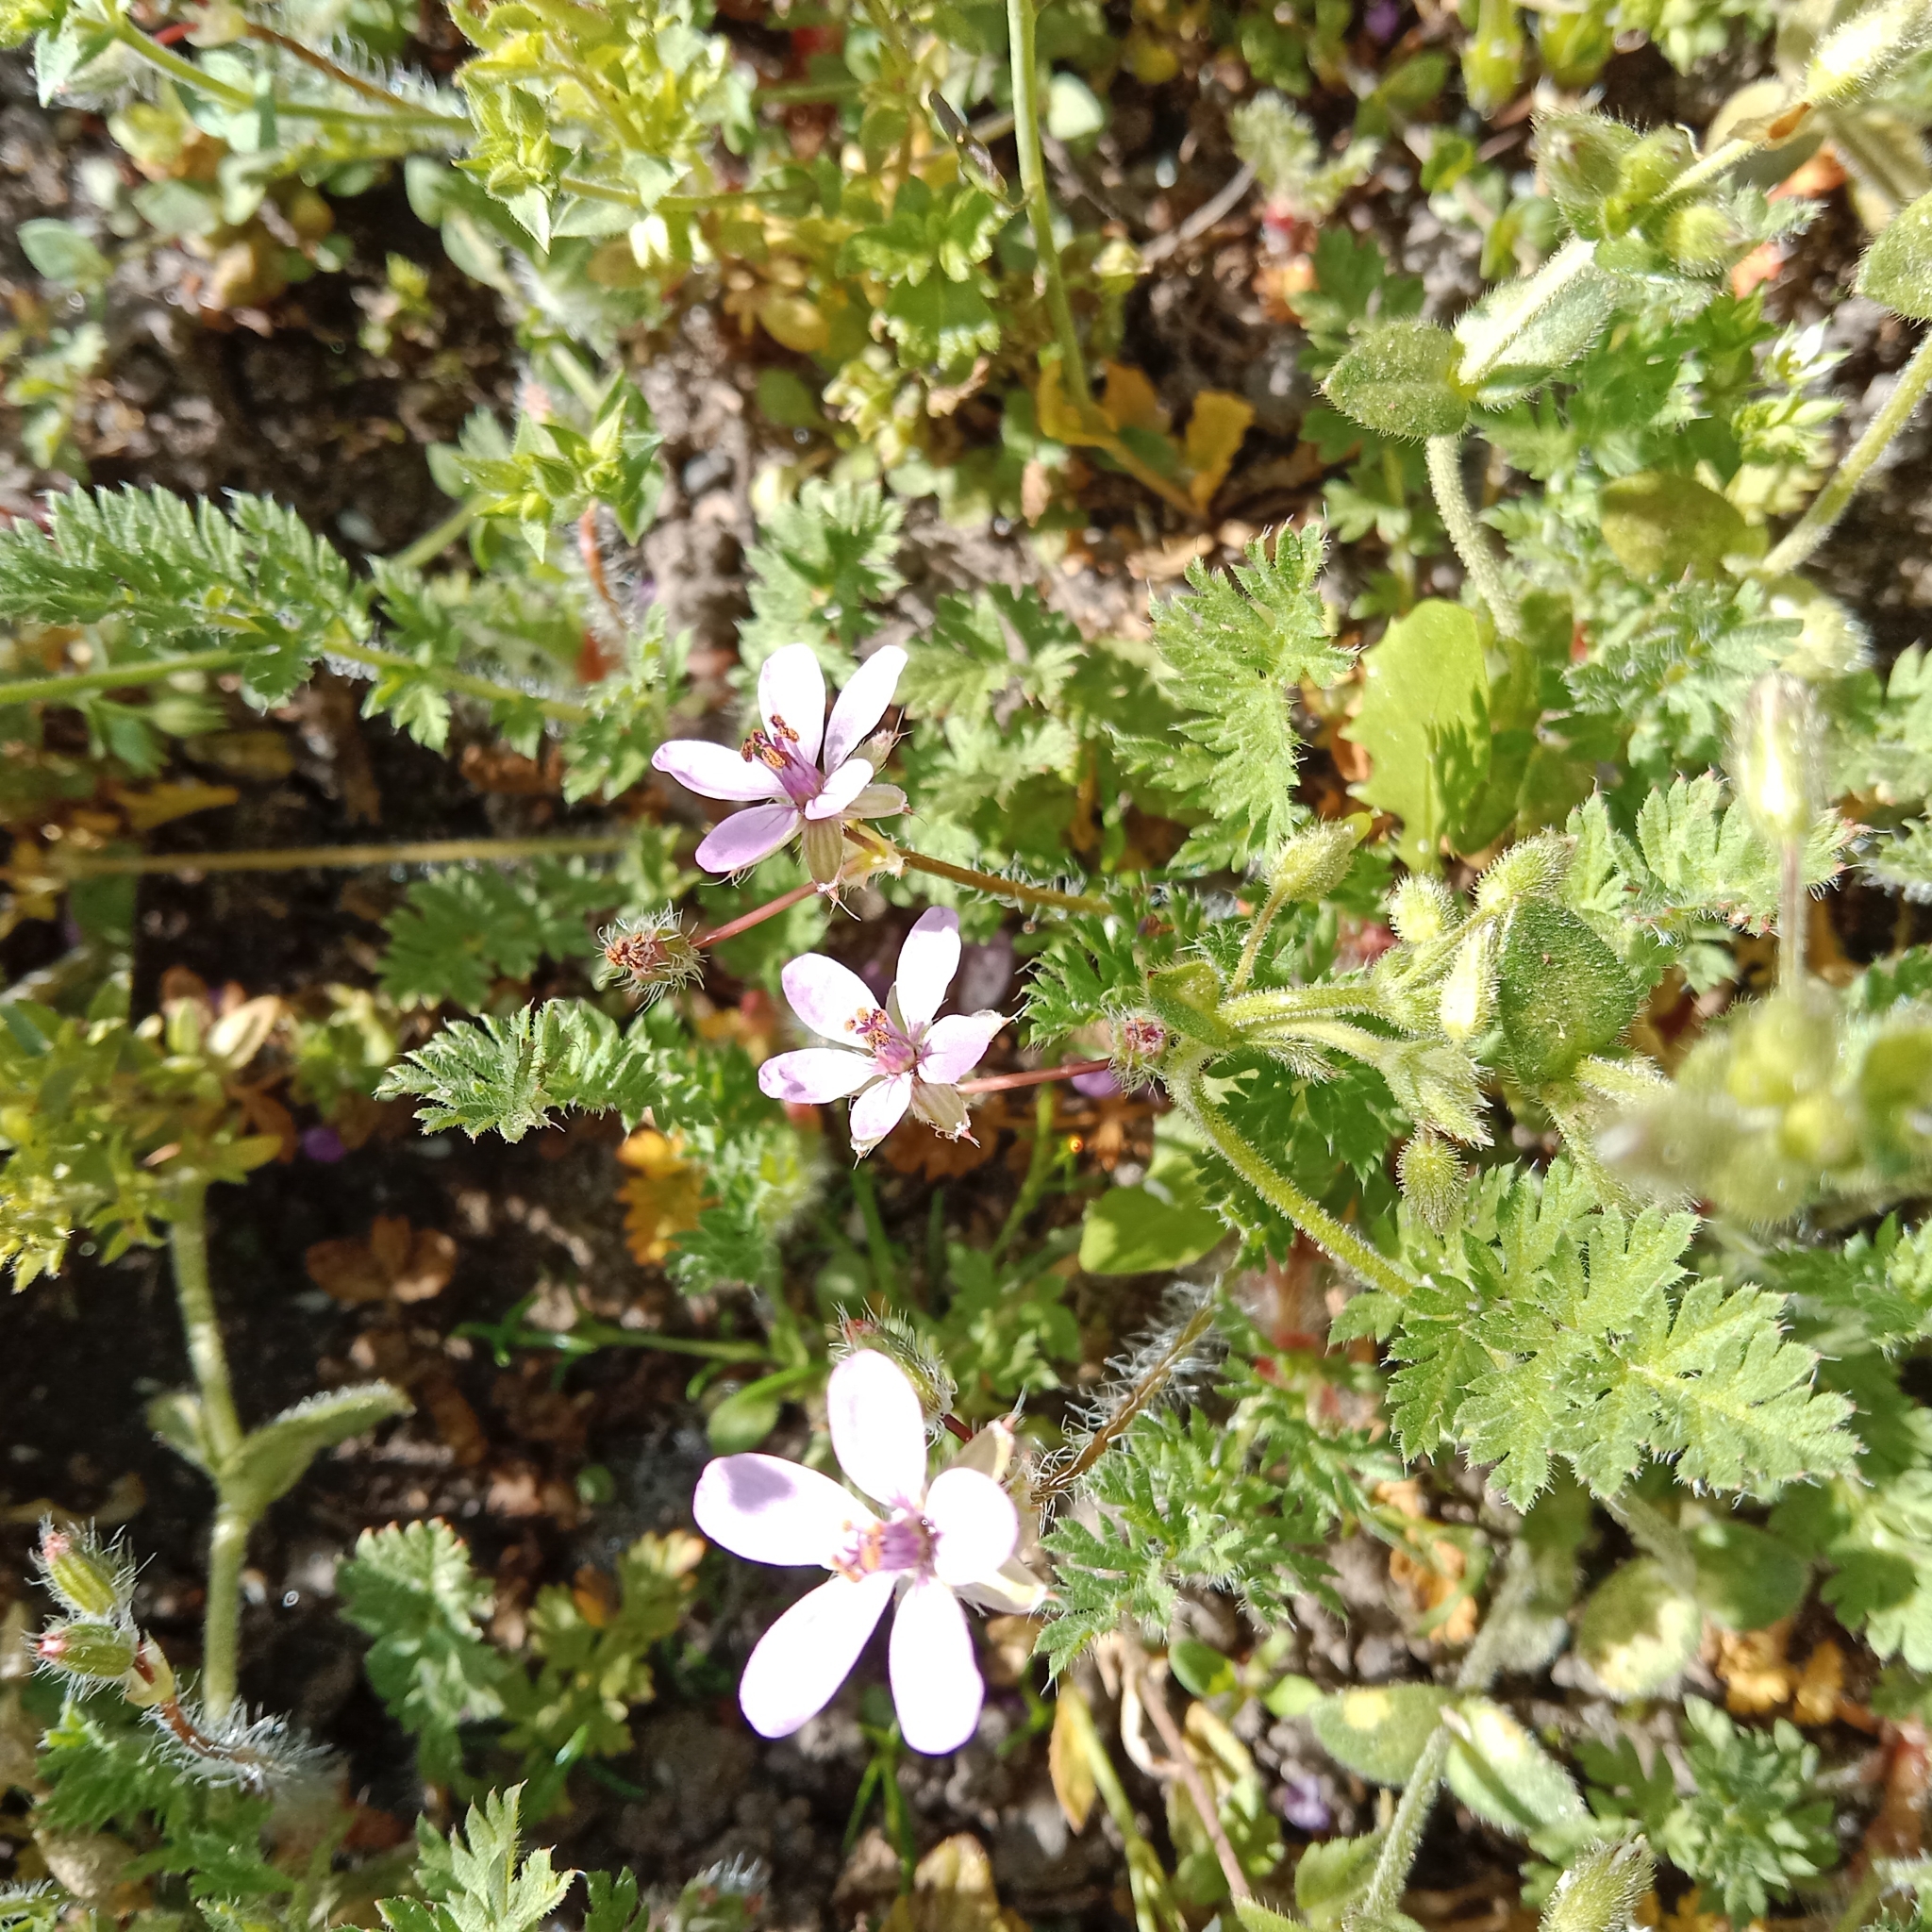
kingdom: Plantae
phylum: Tracheophyta
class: Magnoliopsida
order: Geraniales
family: Geraniaceae
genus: Erodium
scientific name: Erodium cicutarium
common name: Common stork's-bill
